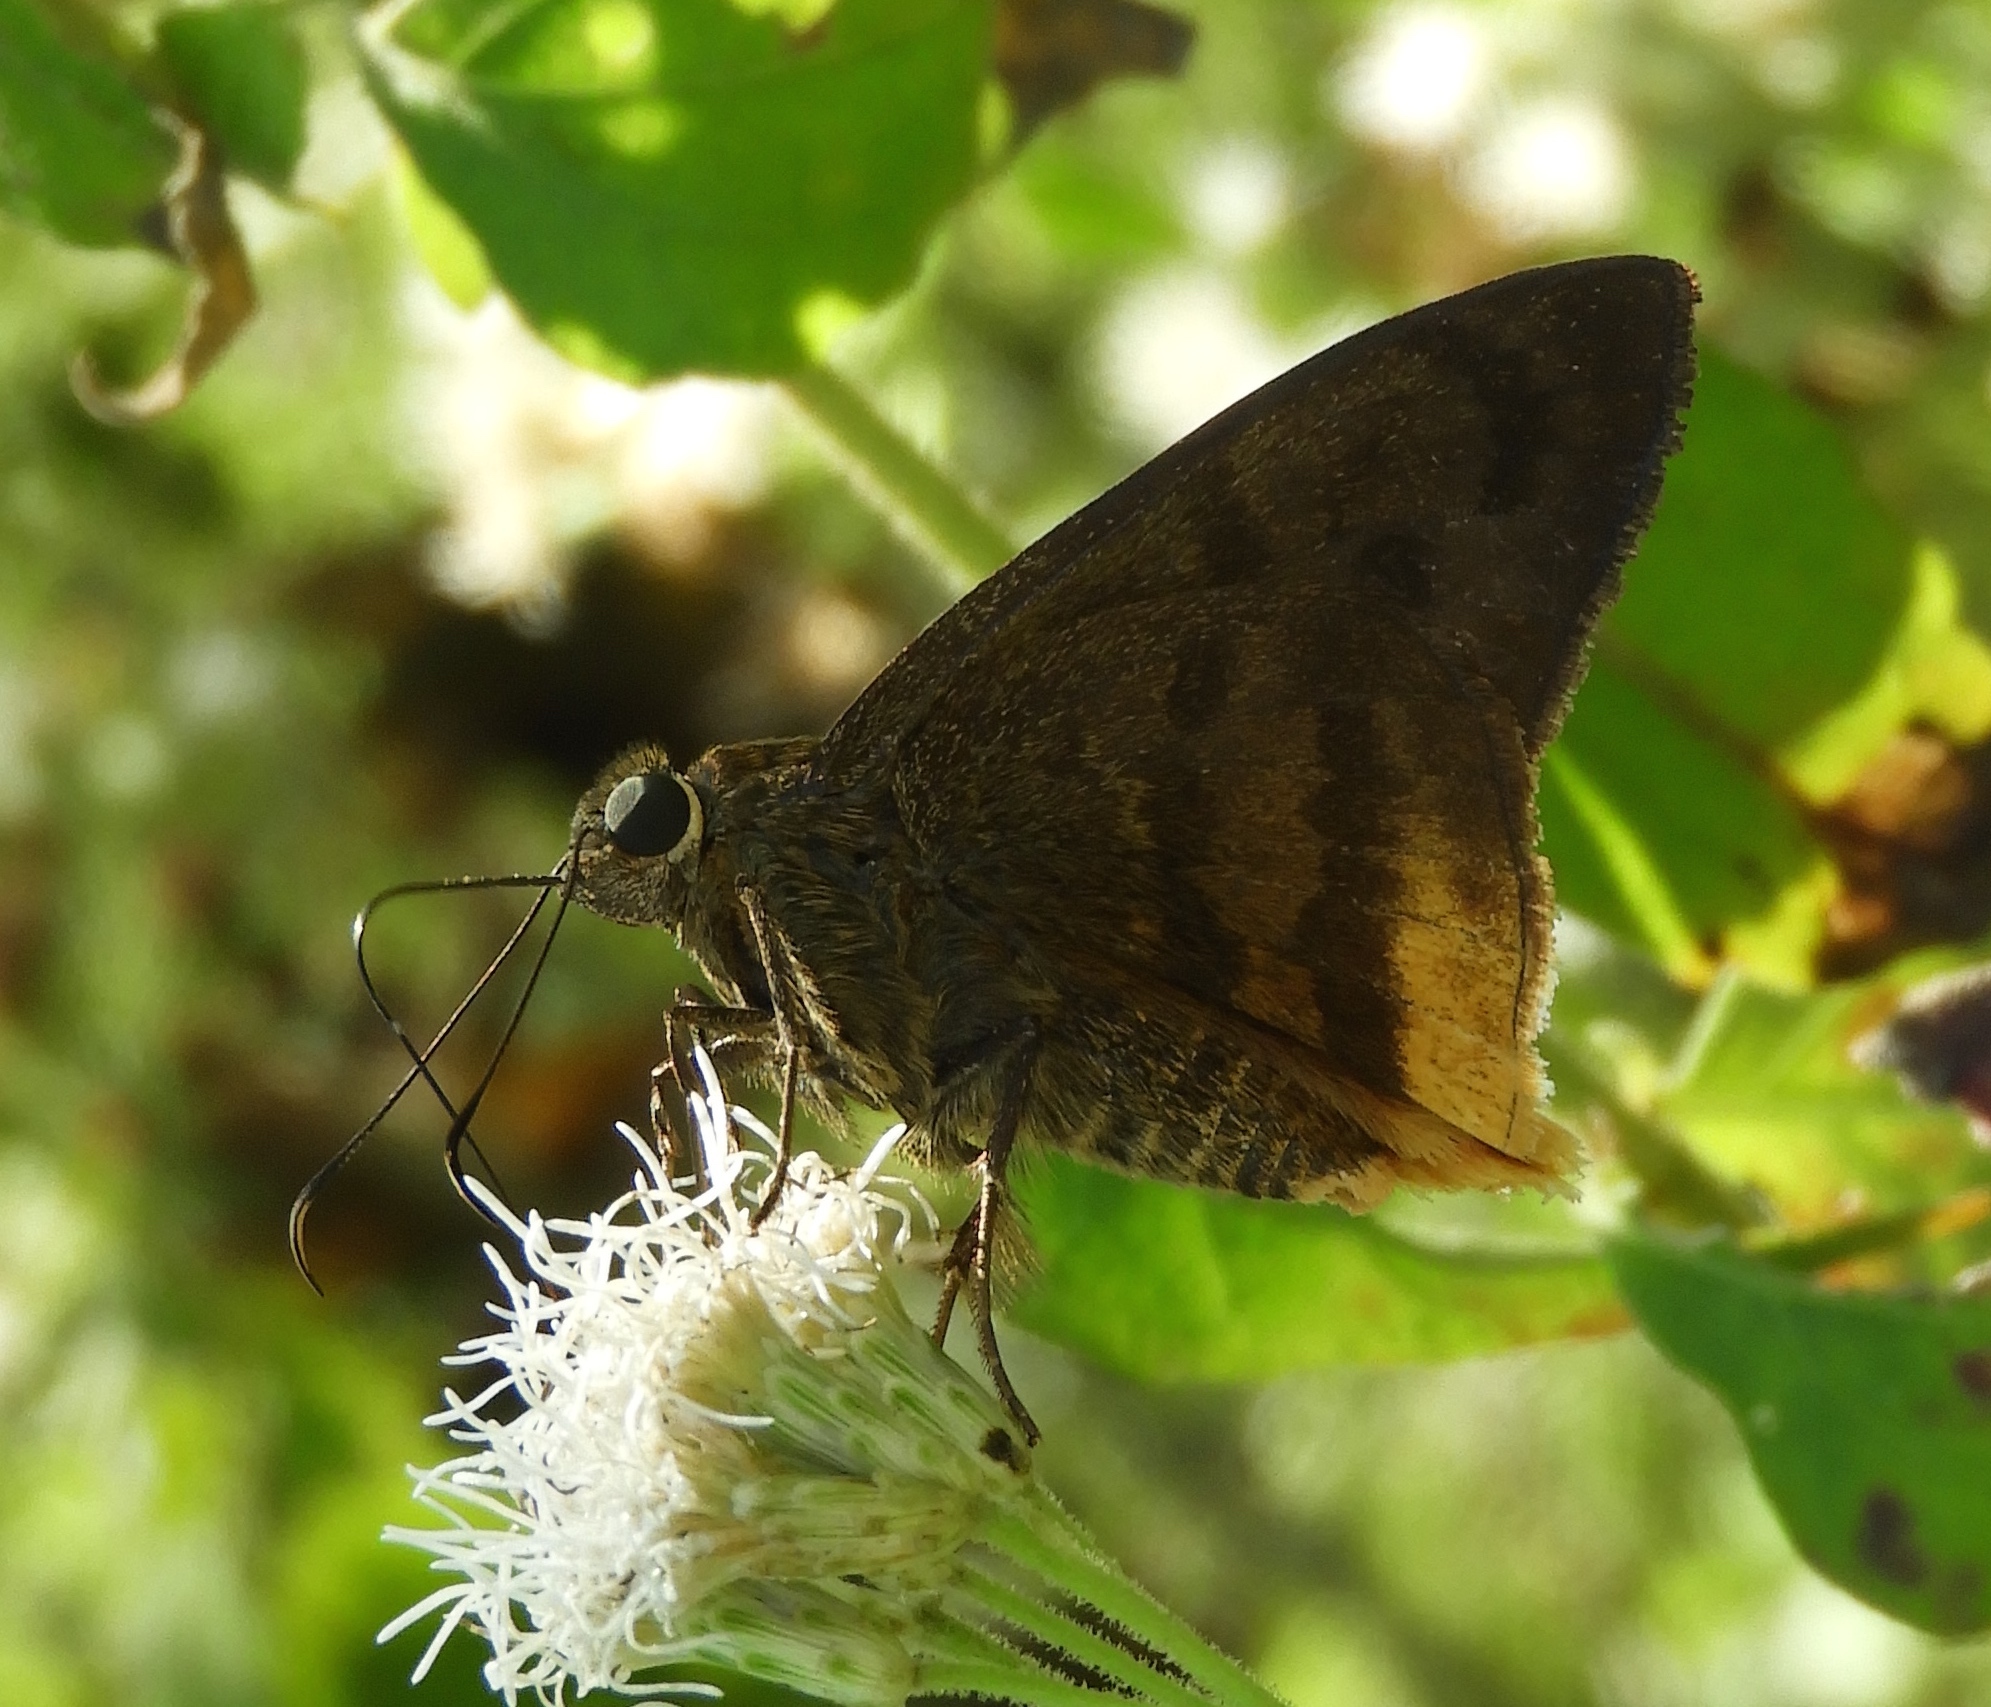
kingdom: Animalia
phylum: Arthropoda
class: Insecta
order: Lepidoptera
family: Hesperiidae
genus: Astraptes
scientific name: Astraptes
